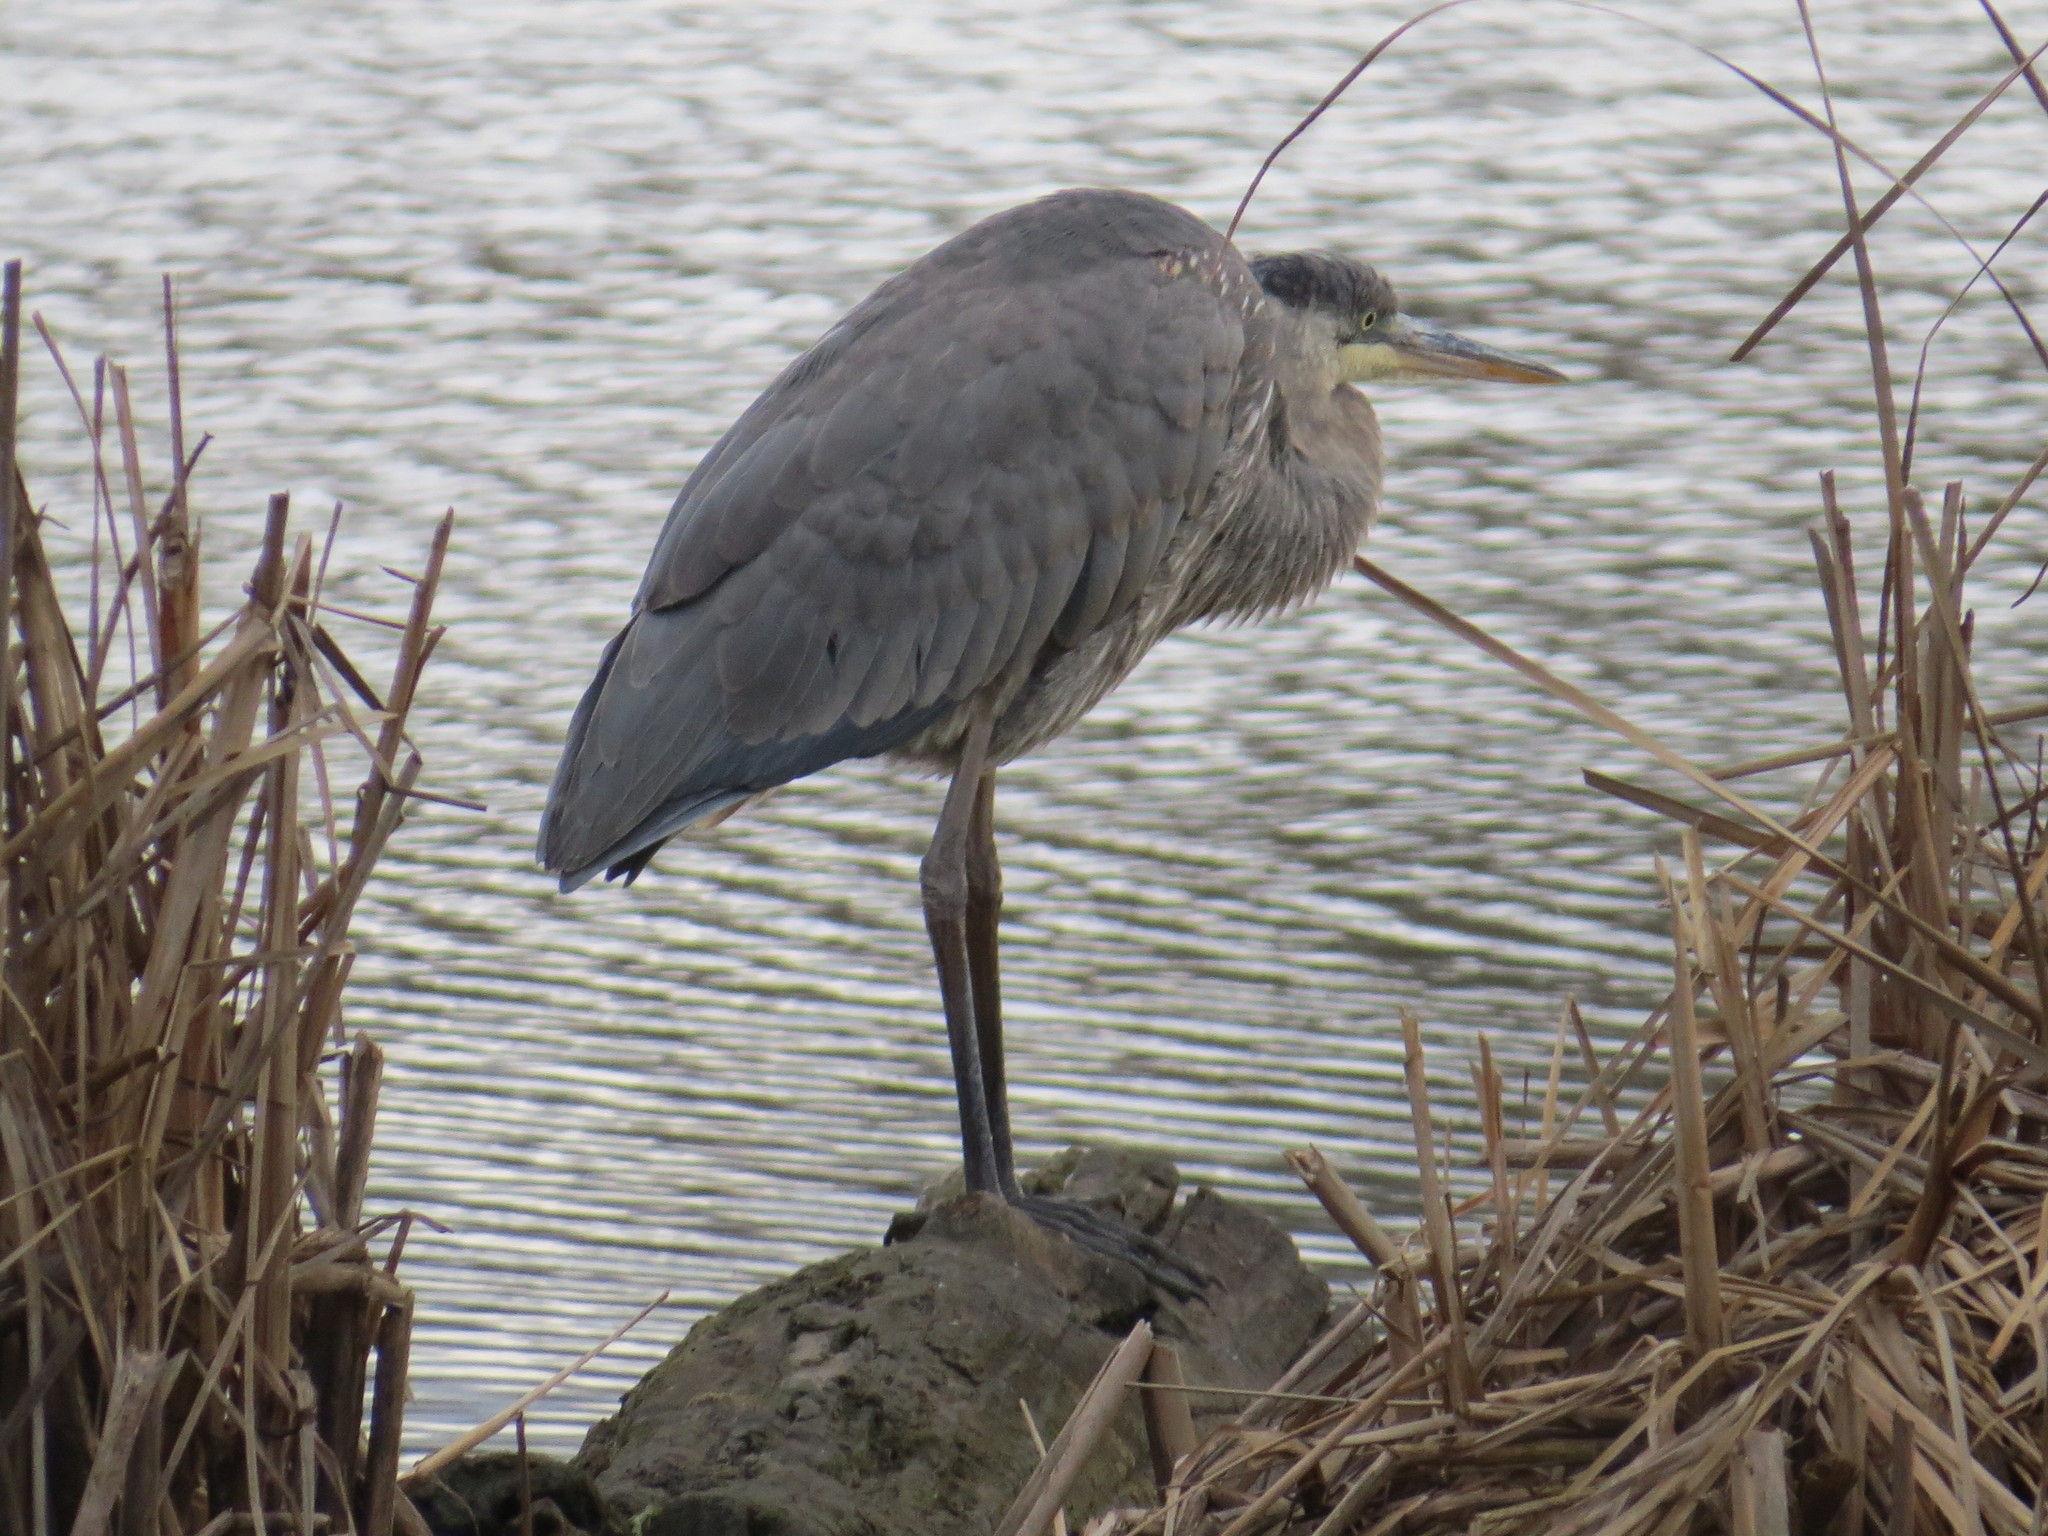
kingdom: Animalia
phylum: Chordata
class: Aves
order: Pelecaniformes
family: Ardeidae
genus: Ardea
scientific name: Ardea herodias
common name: Great blue heron
